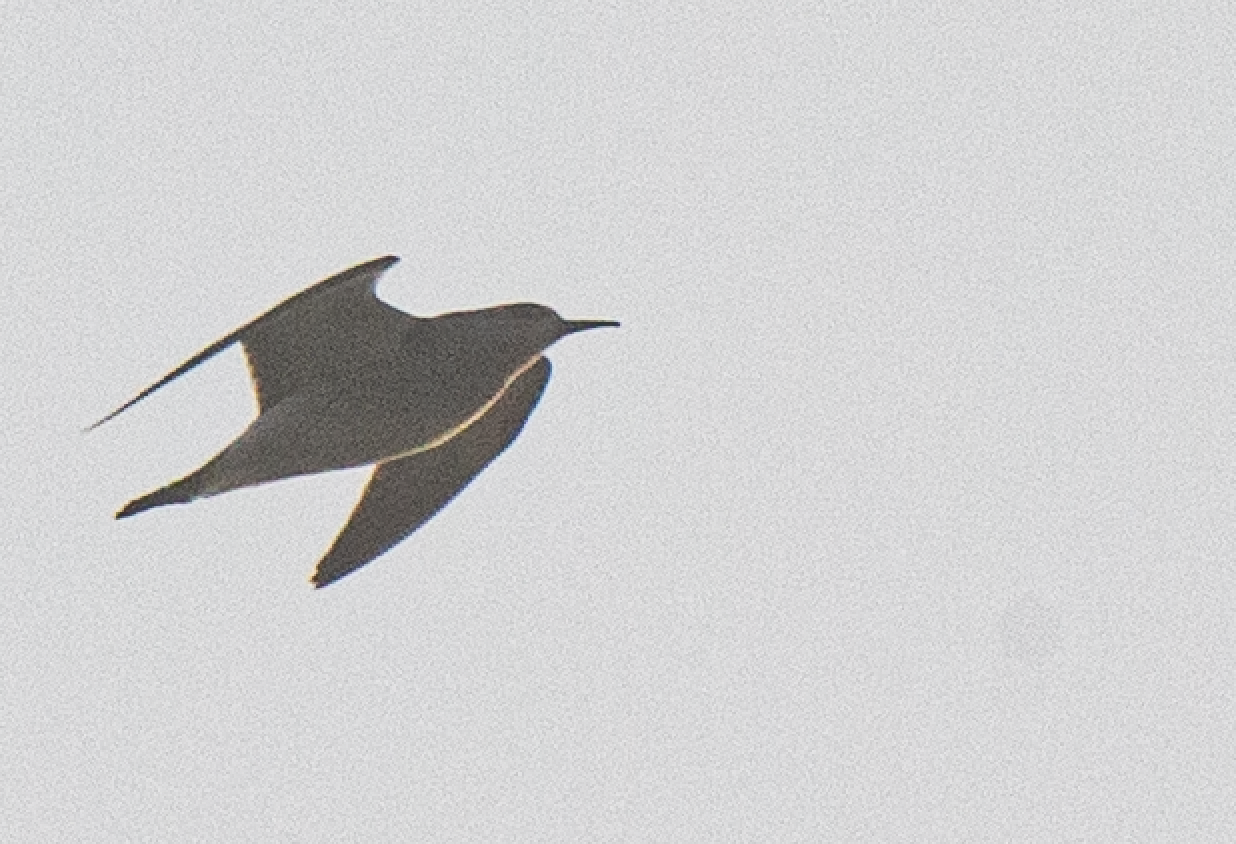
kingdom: Animalia
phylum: Chordata
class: Aves
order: Charadriiformes
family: Scolopacidae
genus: Calidris
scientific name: Calidris pugnax
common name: Ruff
